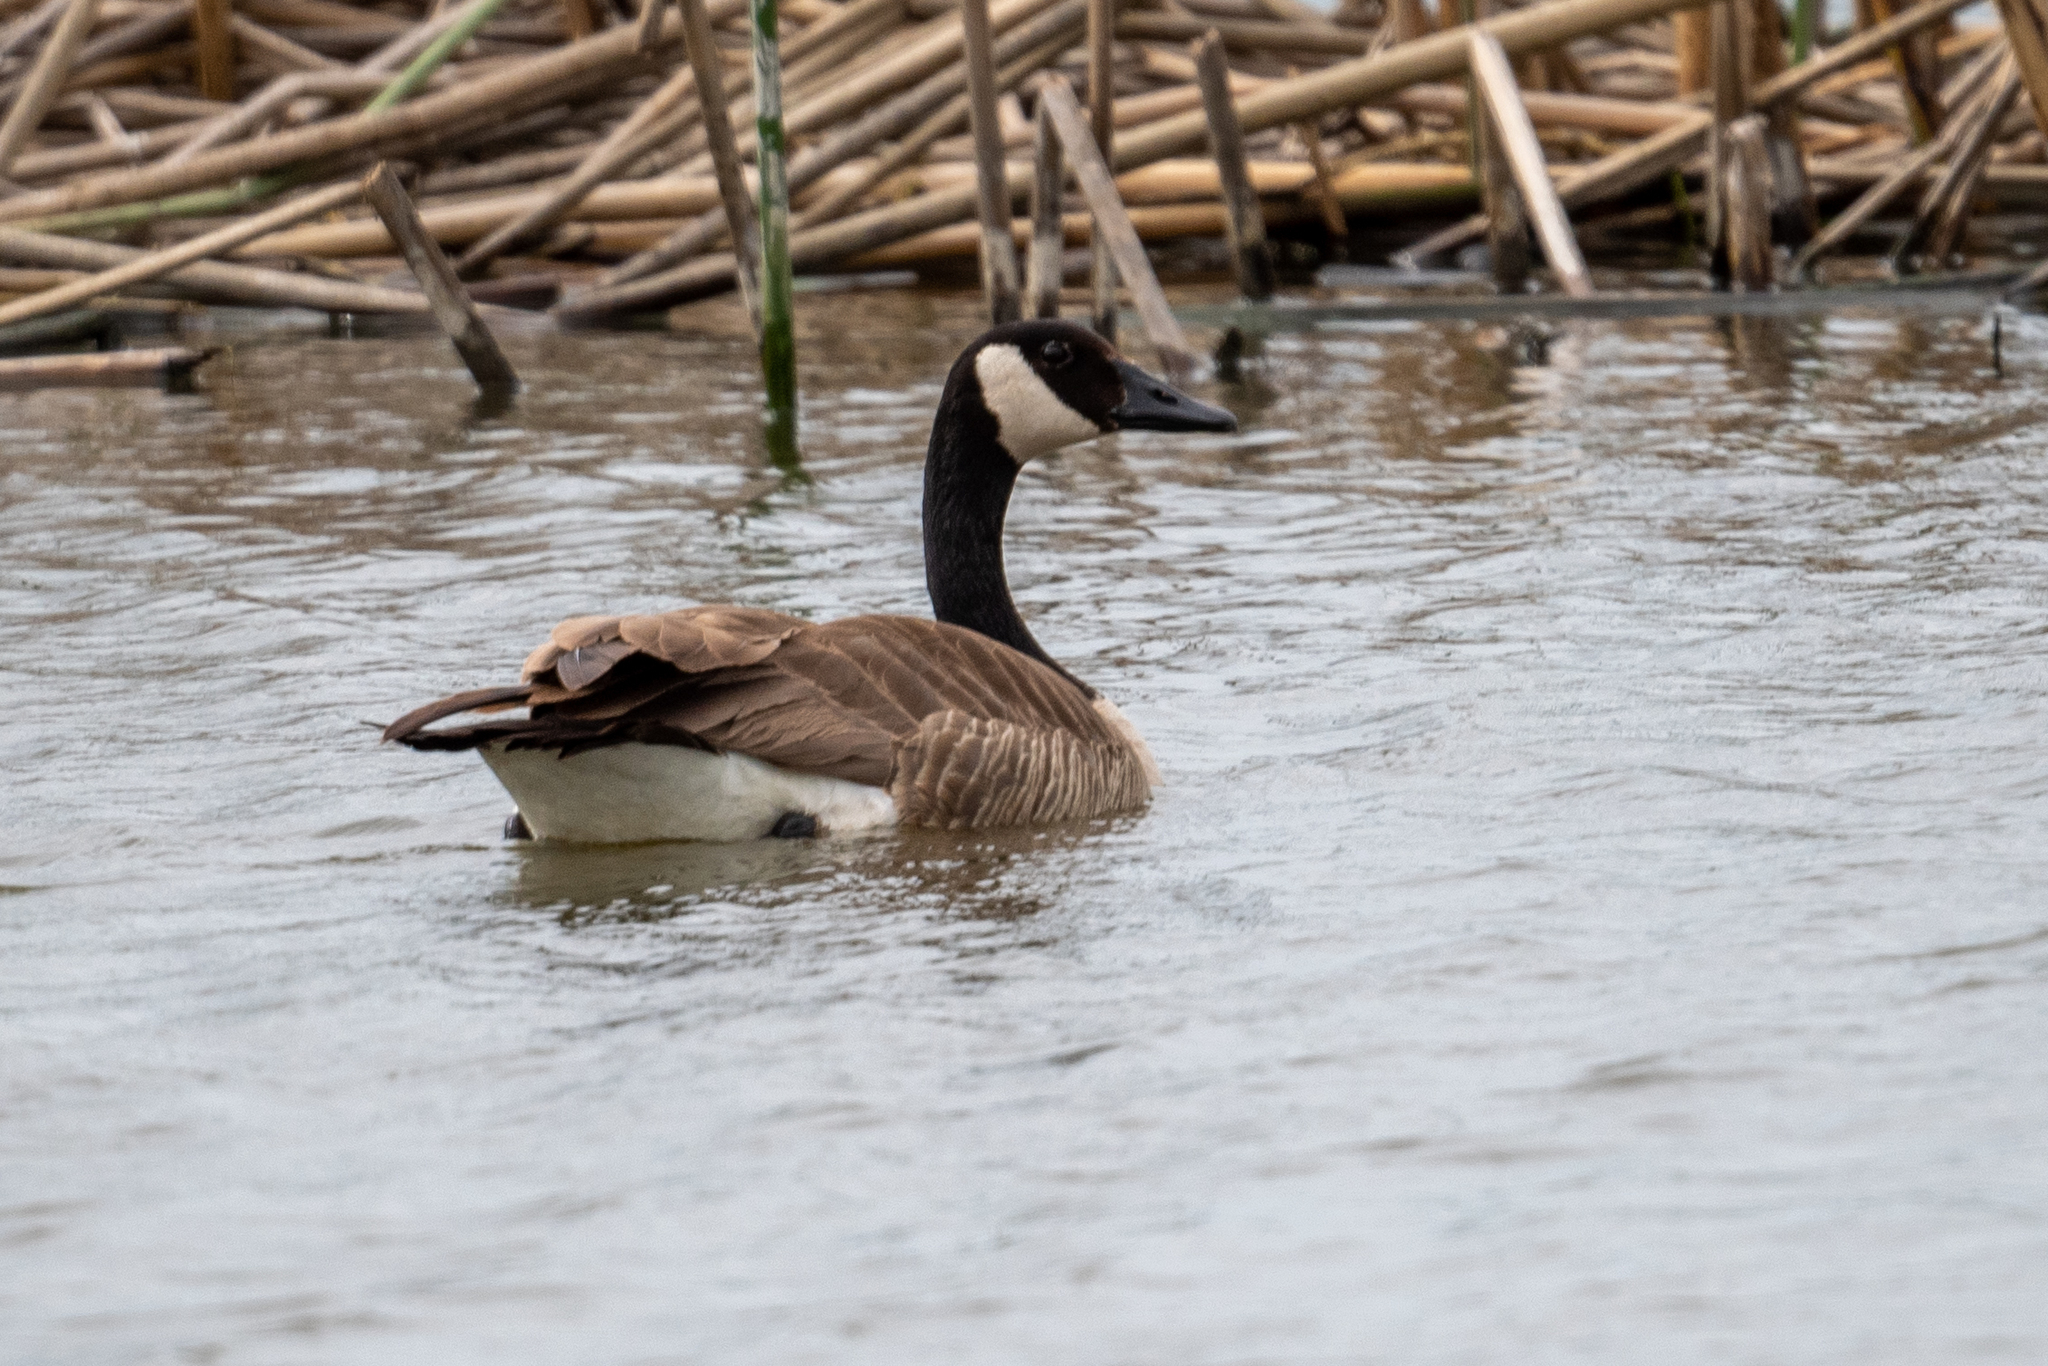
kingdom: Animalia
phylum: Chordata
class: Aves
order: Anseriformes
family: Anatidae
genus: Branta
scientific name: Branta canadensis
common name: Canada goose
